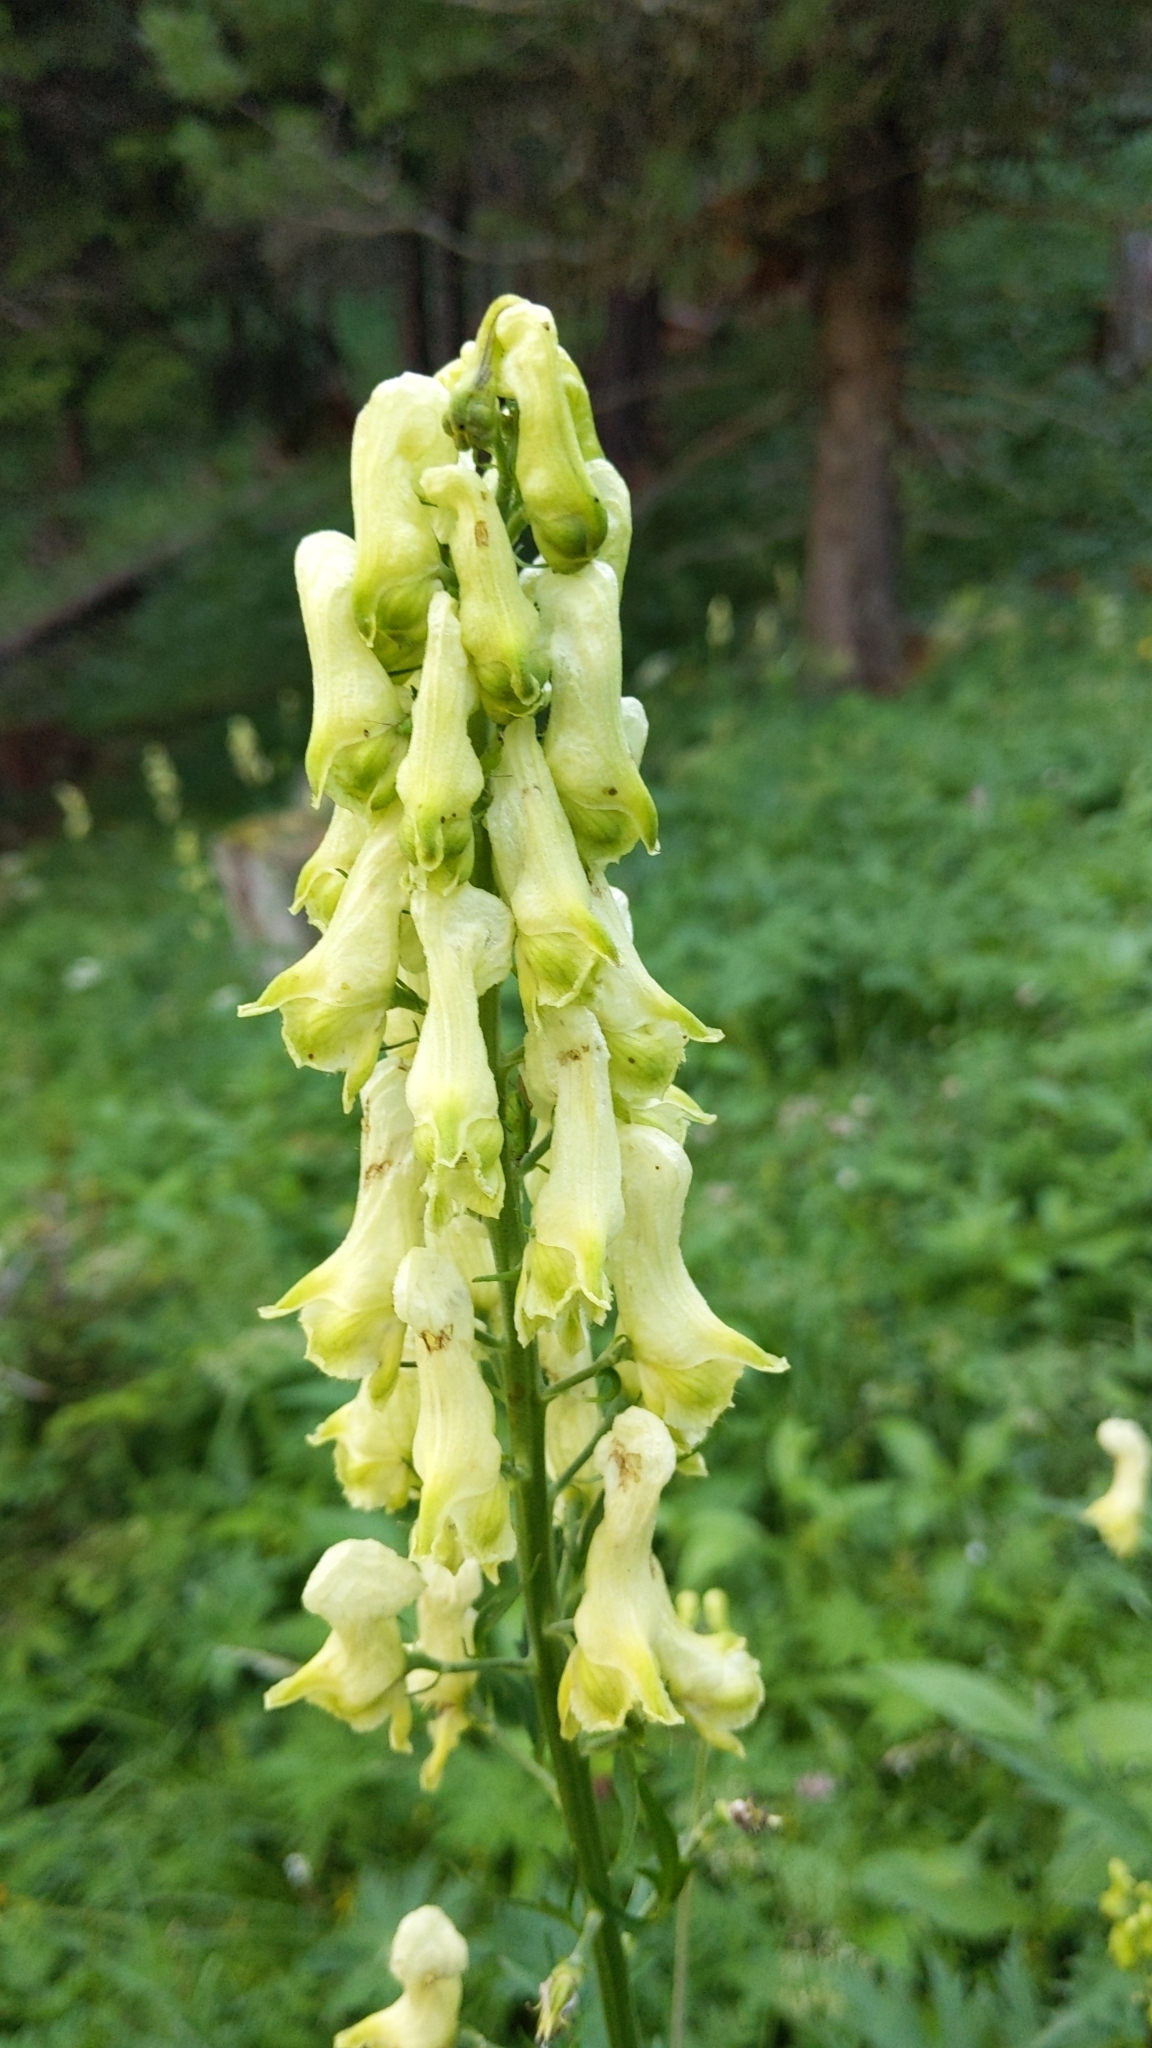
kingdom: Plantae
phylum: Tracheophyta
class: Magnoliopsida
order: Ranunculales
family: Ranunculaceae
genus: Aconitum
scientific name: Aconitum lycoctonum
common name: Wolf's-bane
